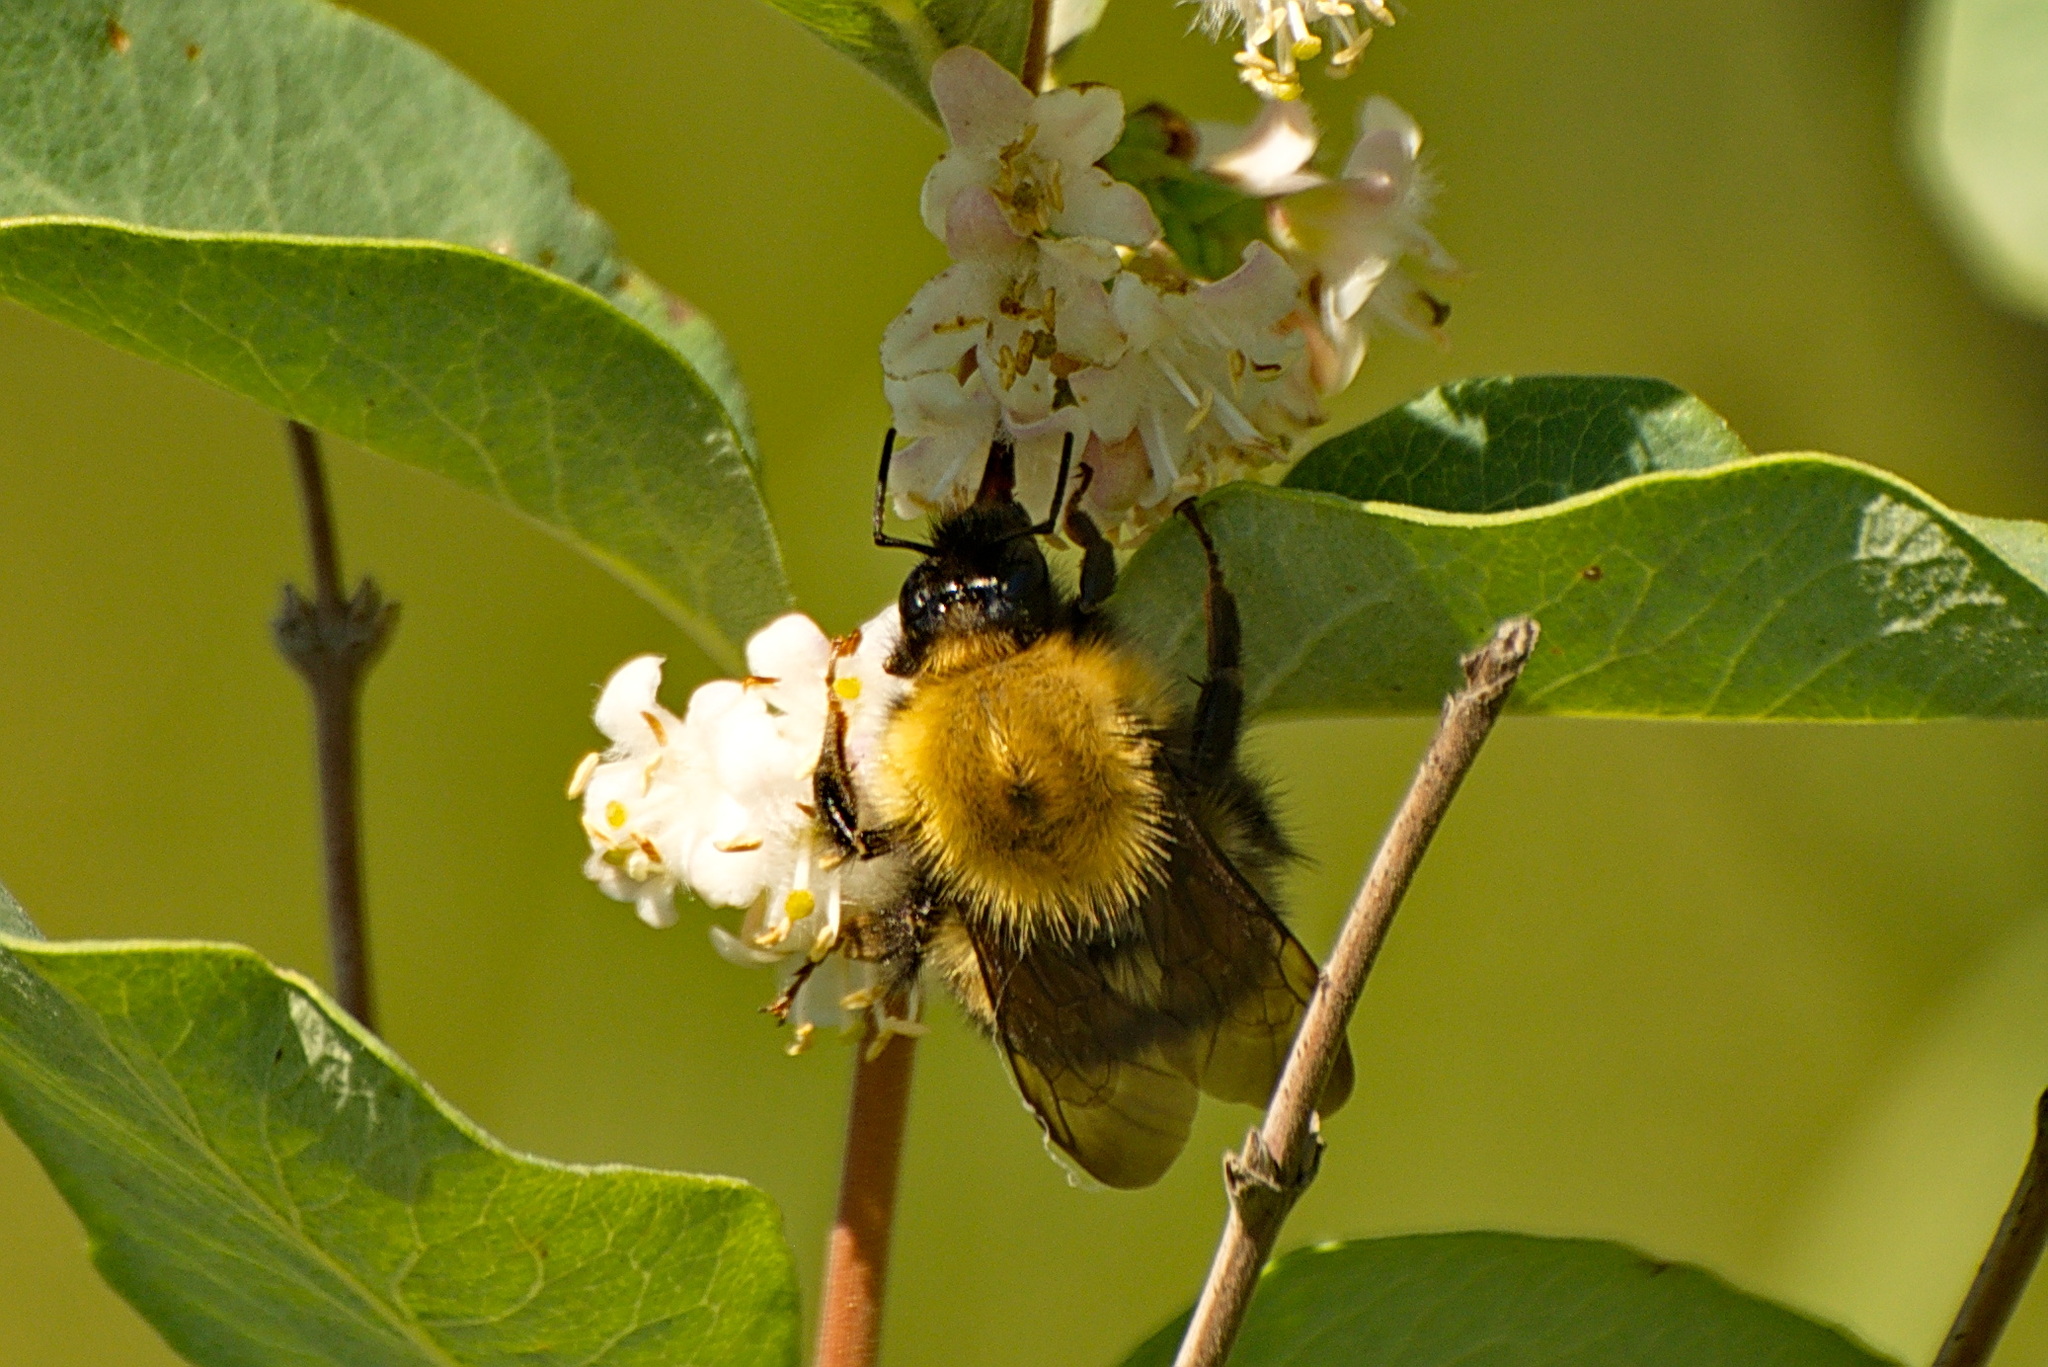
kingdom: Animalia
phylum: Arthropoda
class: Insecta
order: Hymenoptera
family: Apidae
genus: Bombus
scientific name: Bombus perplexus
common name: Confusing bumble bee
